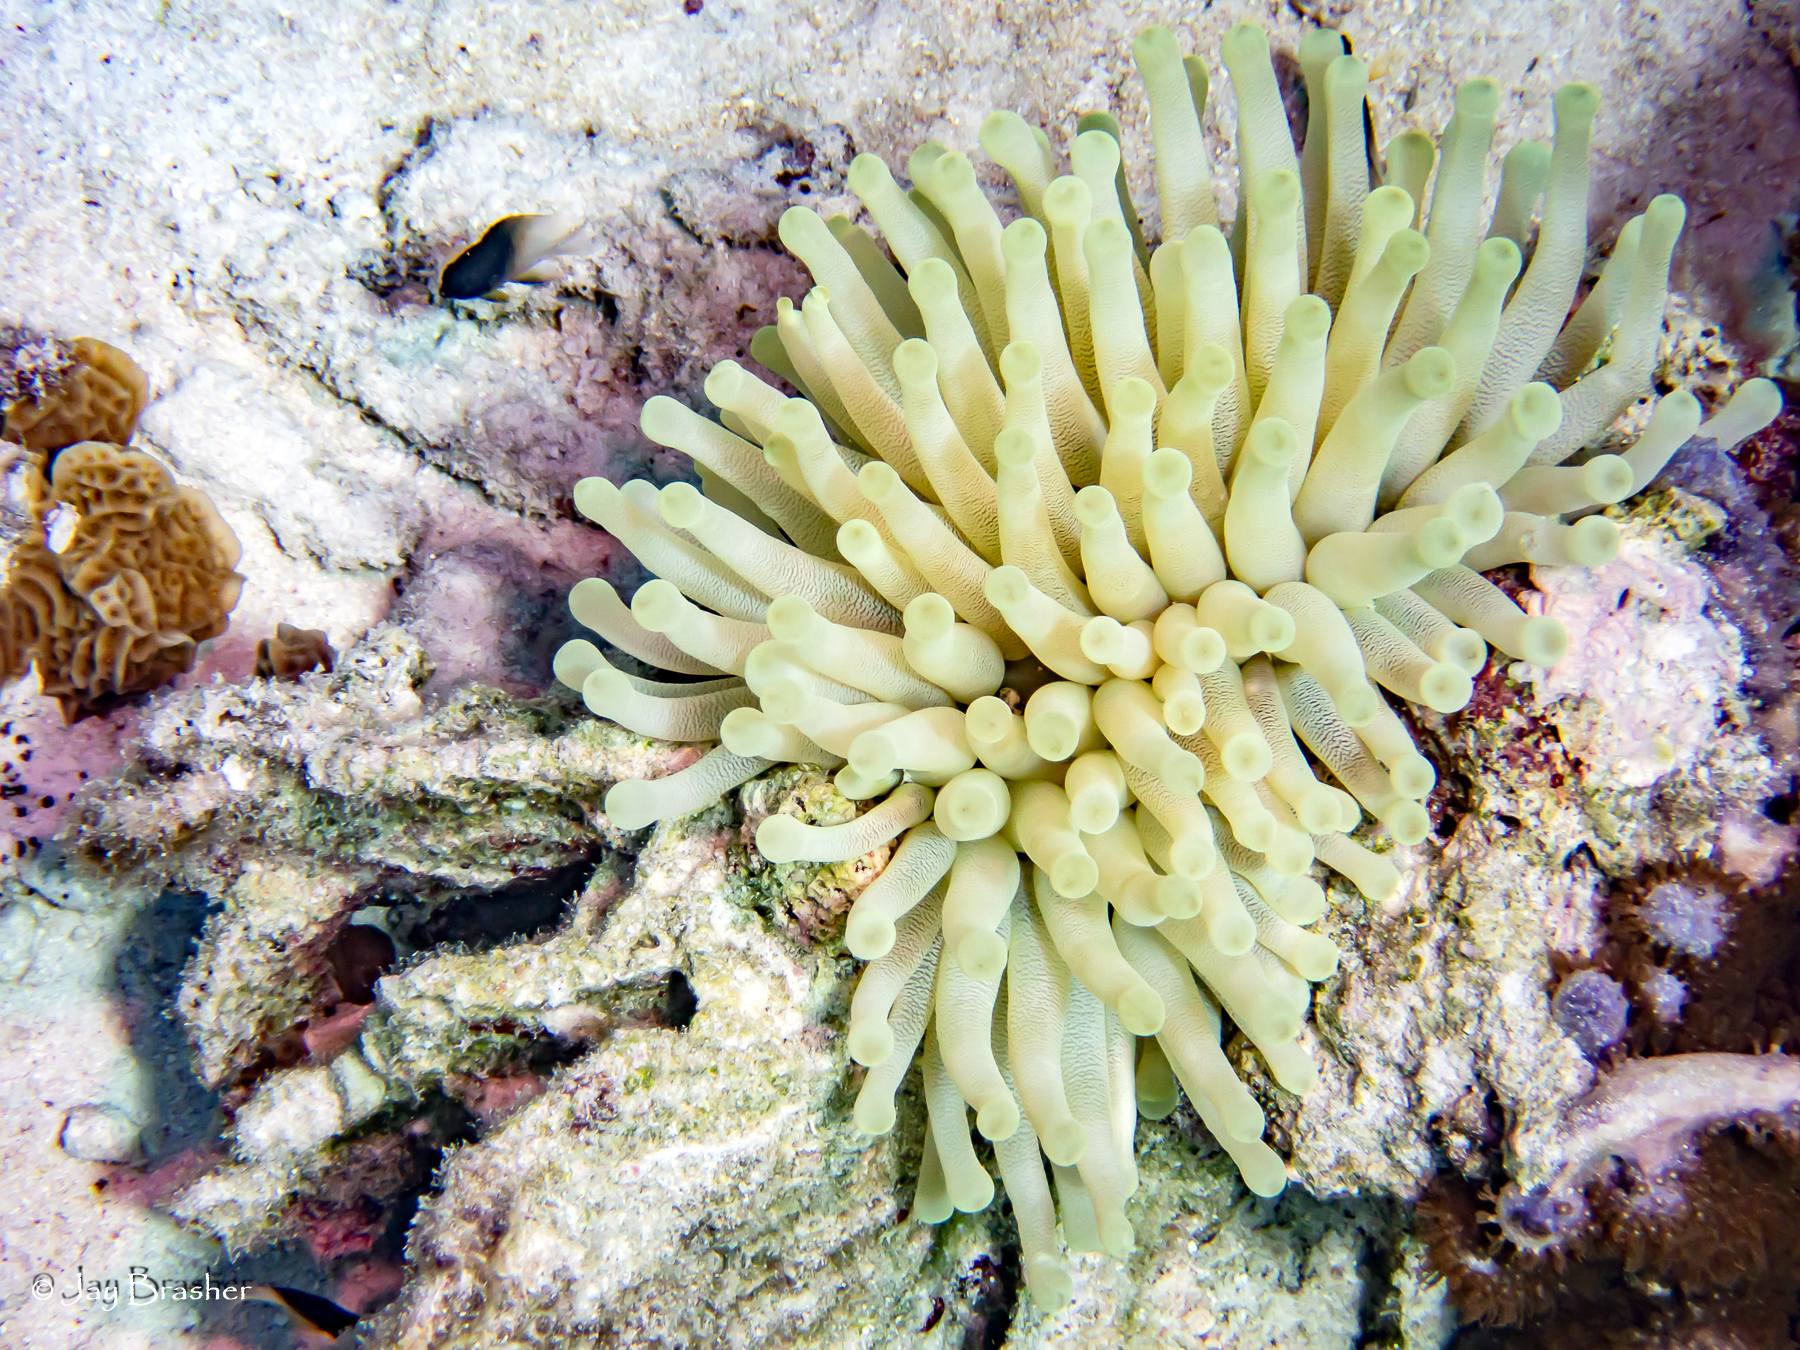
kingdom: Animalia
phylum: Cnidaria
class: Anthozoa
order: Actiniaria
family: Actiniidae
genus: Condylactis
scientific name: Condylactis gigantea
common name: Giant caribbean anemone
